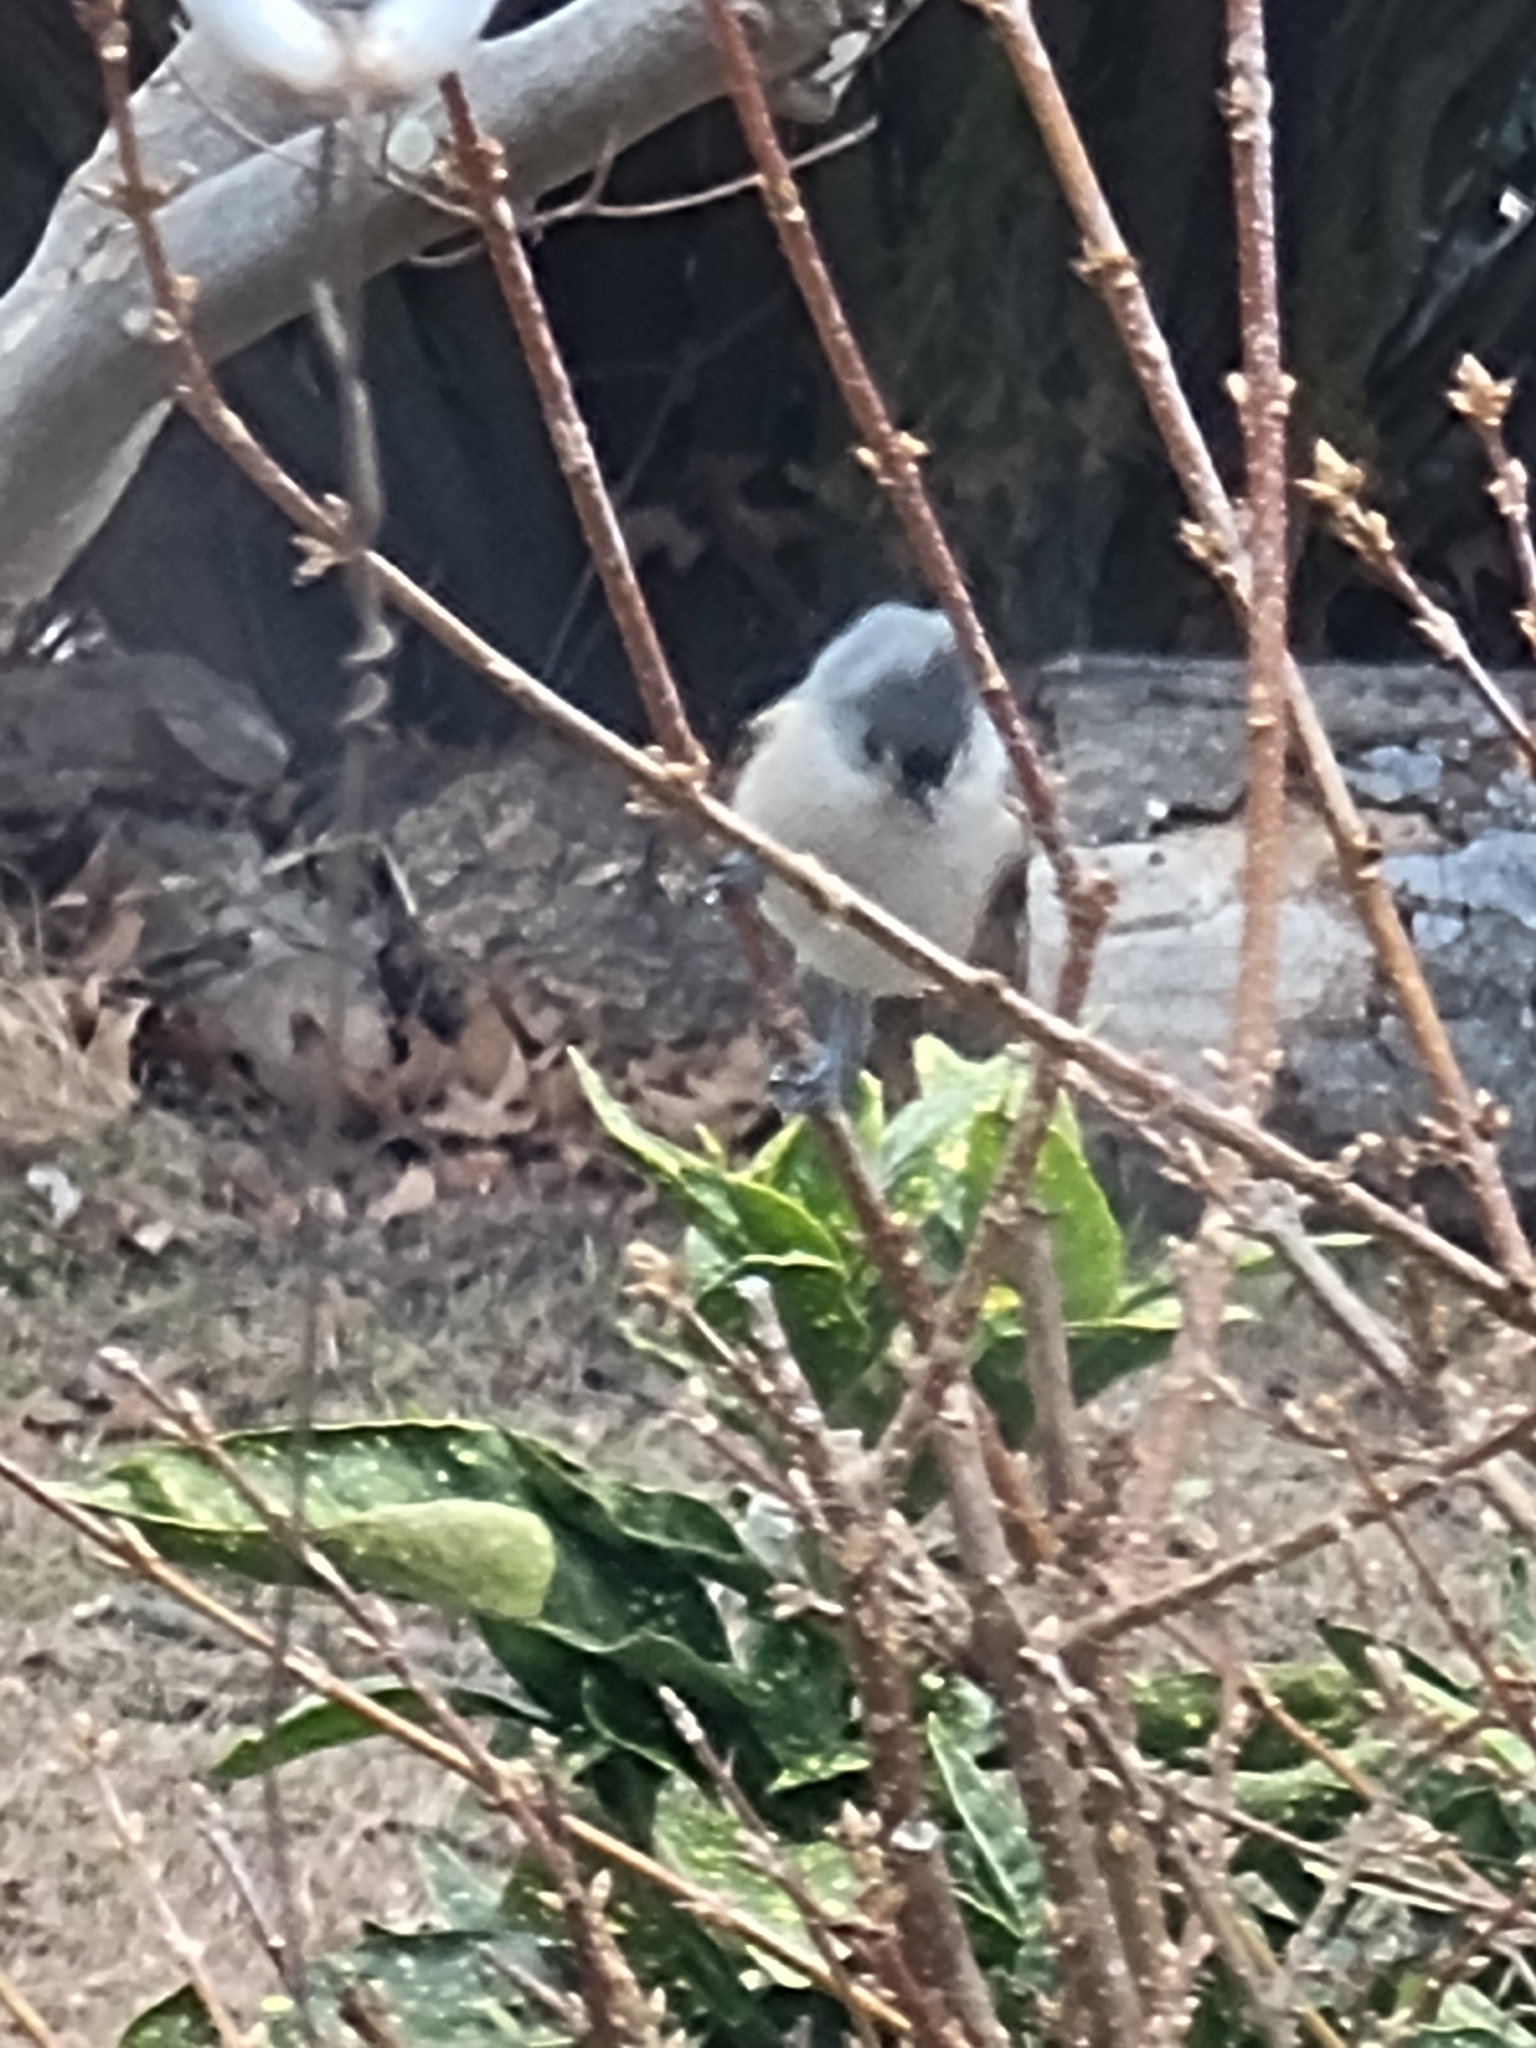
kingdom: Animalia
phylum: Chordata
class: Aves
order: Passeriformes
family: Paridae
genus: Baeolophus
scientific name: Baeolophus bicolor
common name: Tufted titmouse
